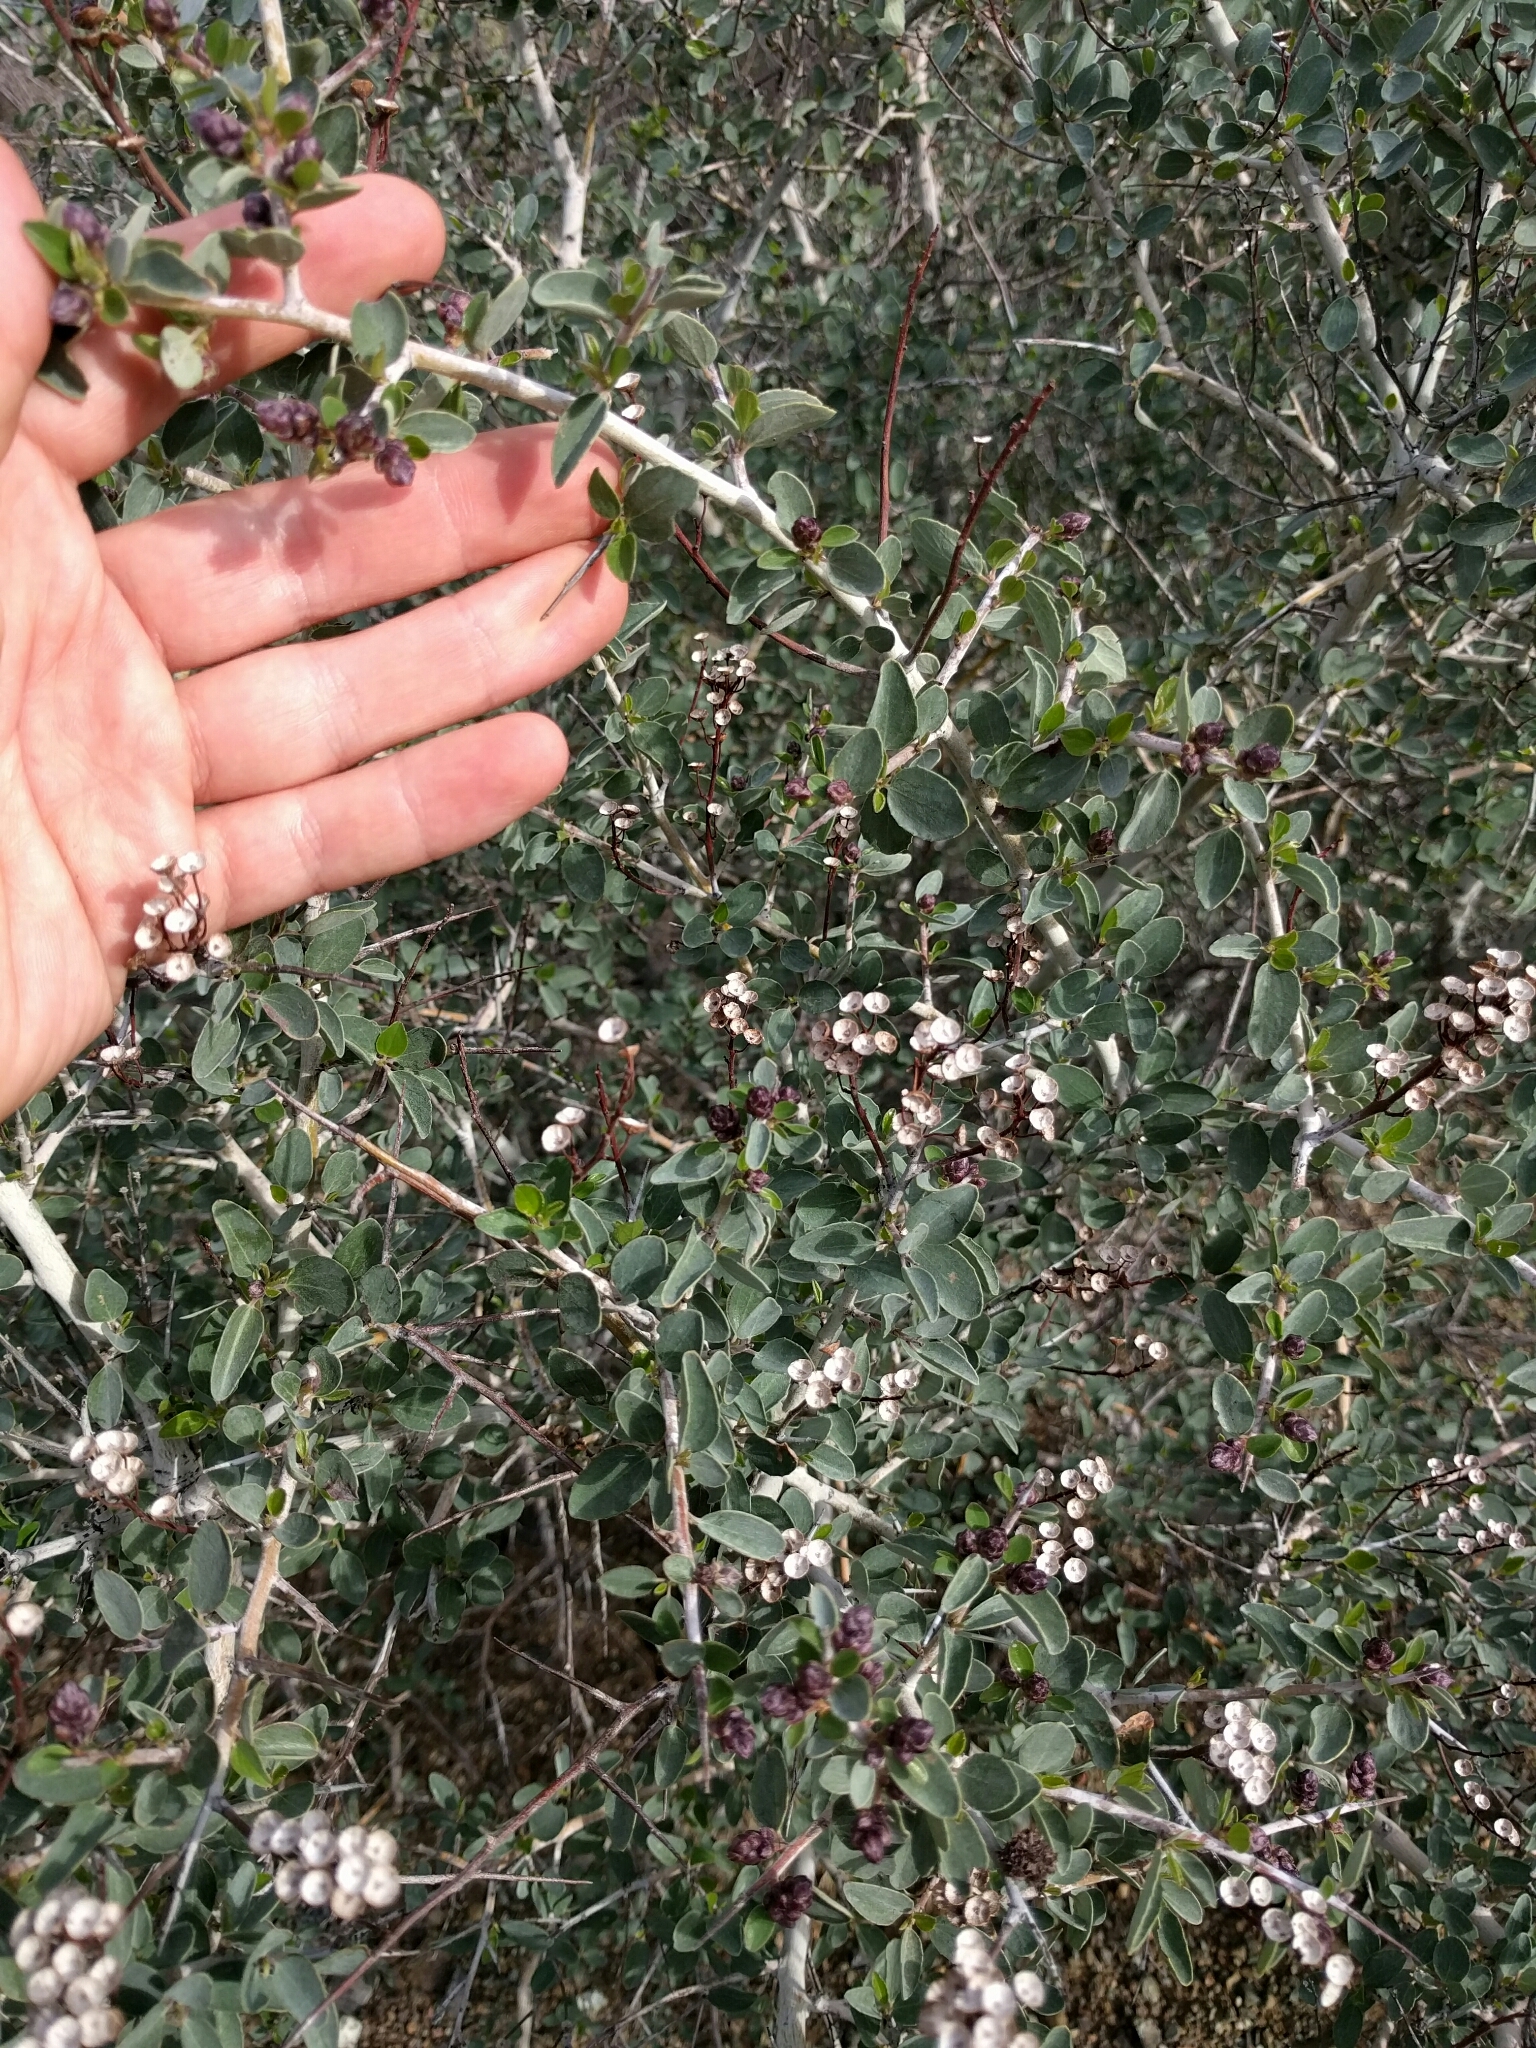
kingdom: Plantae
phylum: Tracheophyta
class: Magnoliopsida
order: Rosales
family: Rhamnaceae
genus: Ceanothus
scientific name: Ceanothus leucodermis
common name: Chaparral whitethorn
